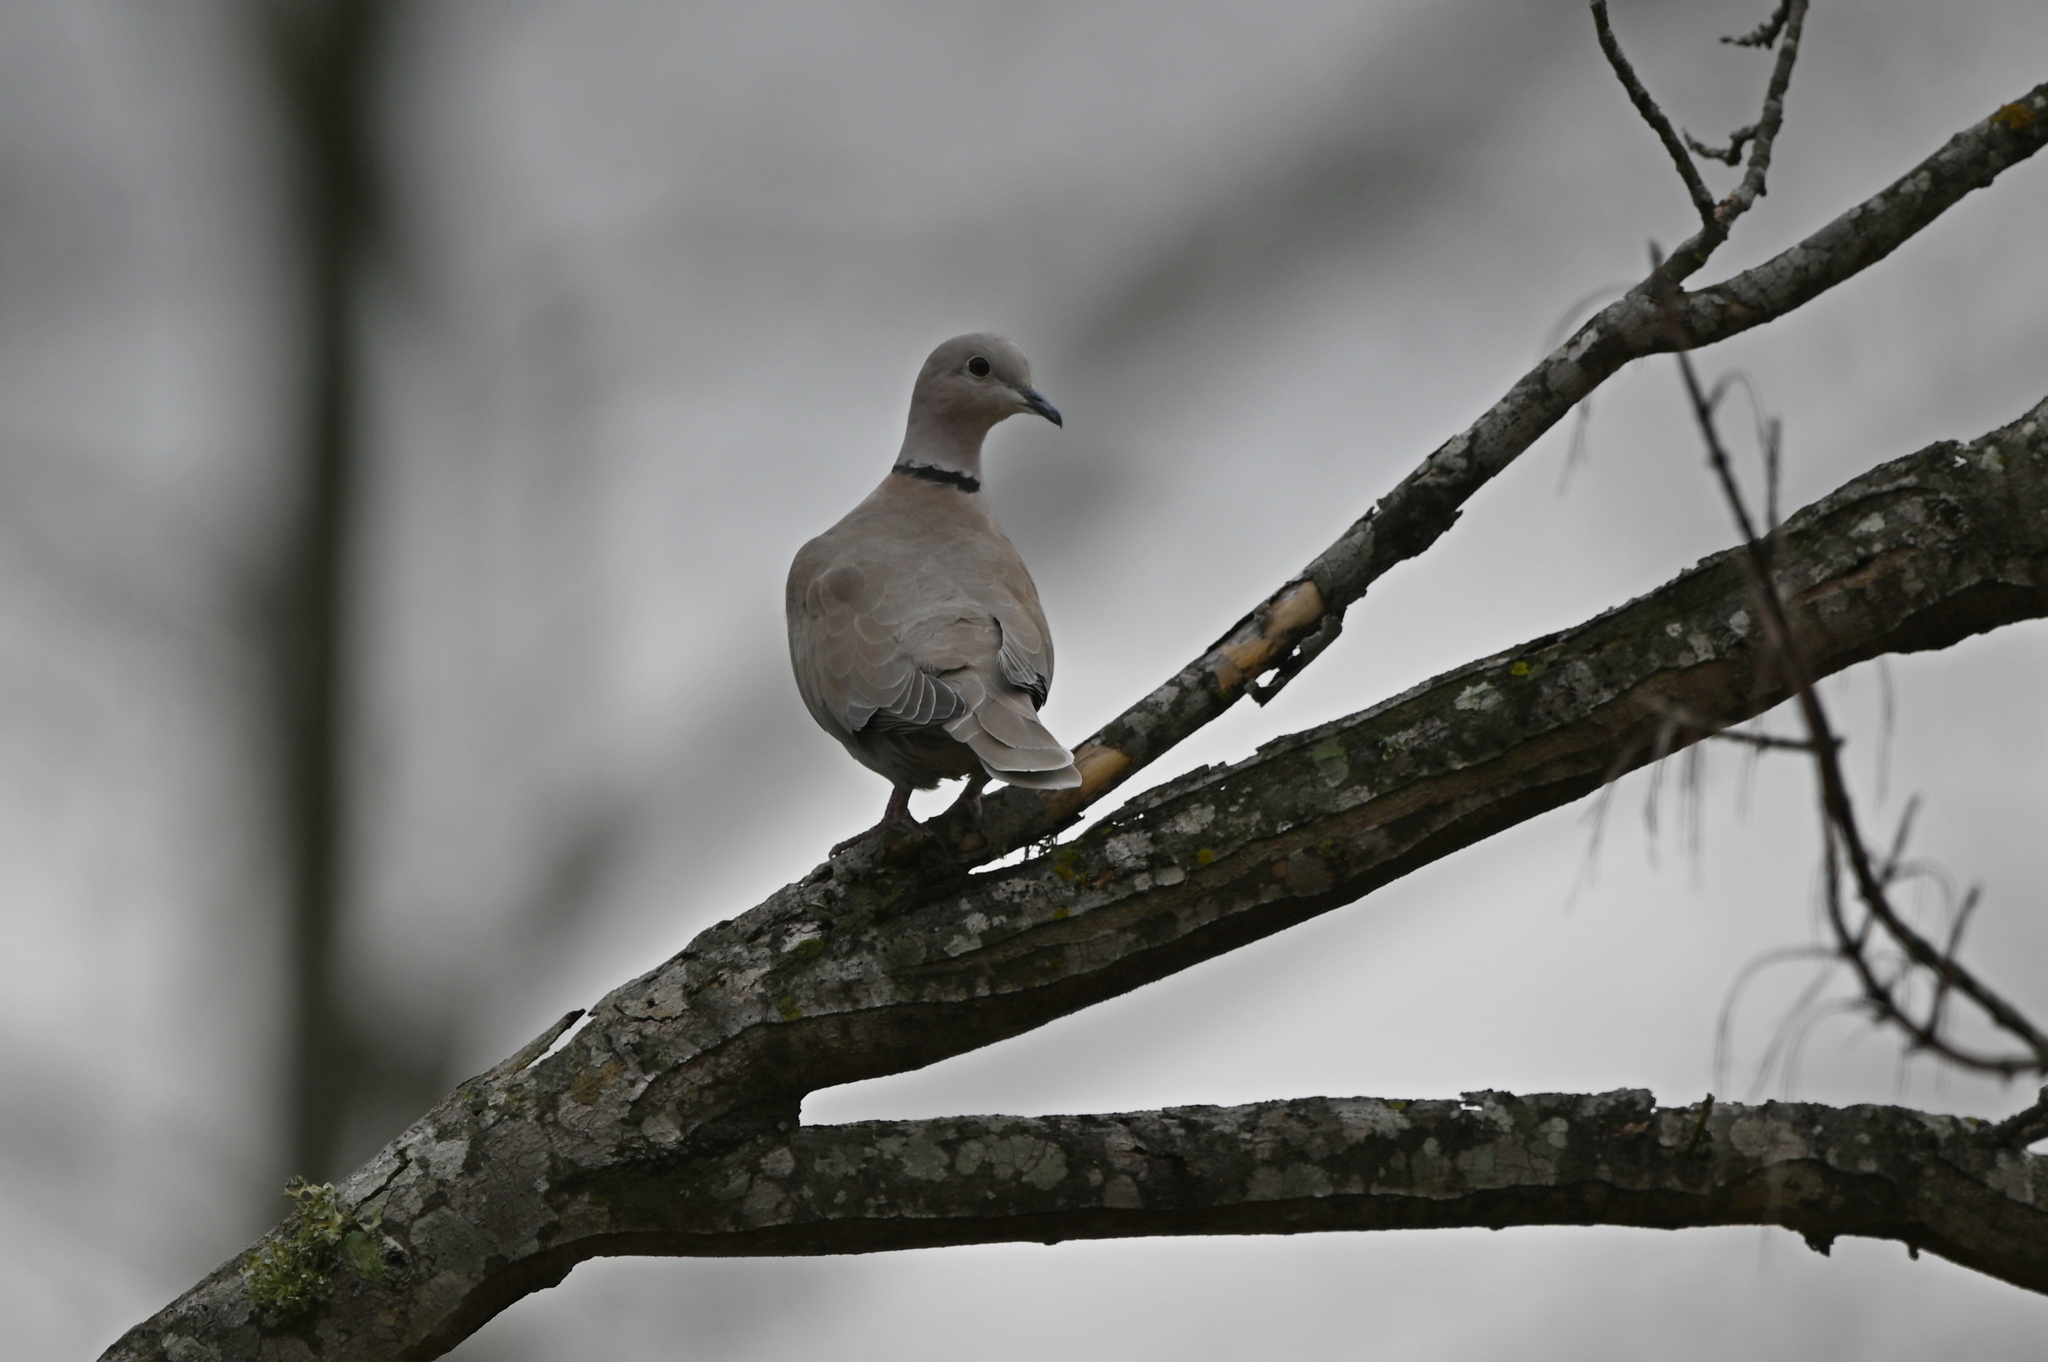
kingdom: Animalia
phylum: Chordata
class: Aves
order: Columbiformes
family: Columbidae
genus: Streptopelia
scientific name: Streptopelia decaocto
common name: Eurasian collared dove
